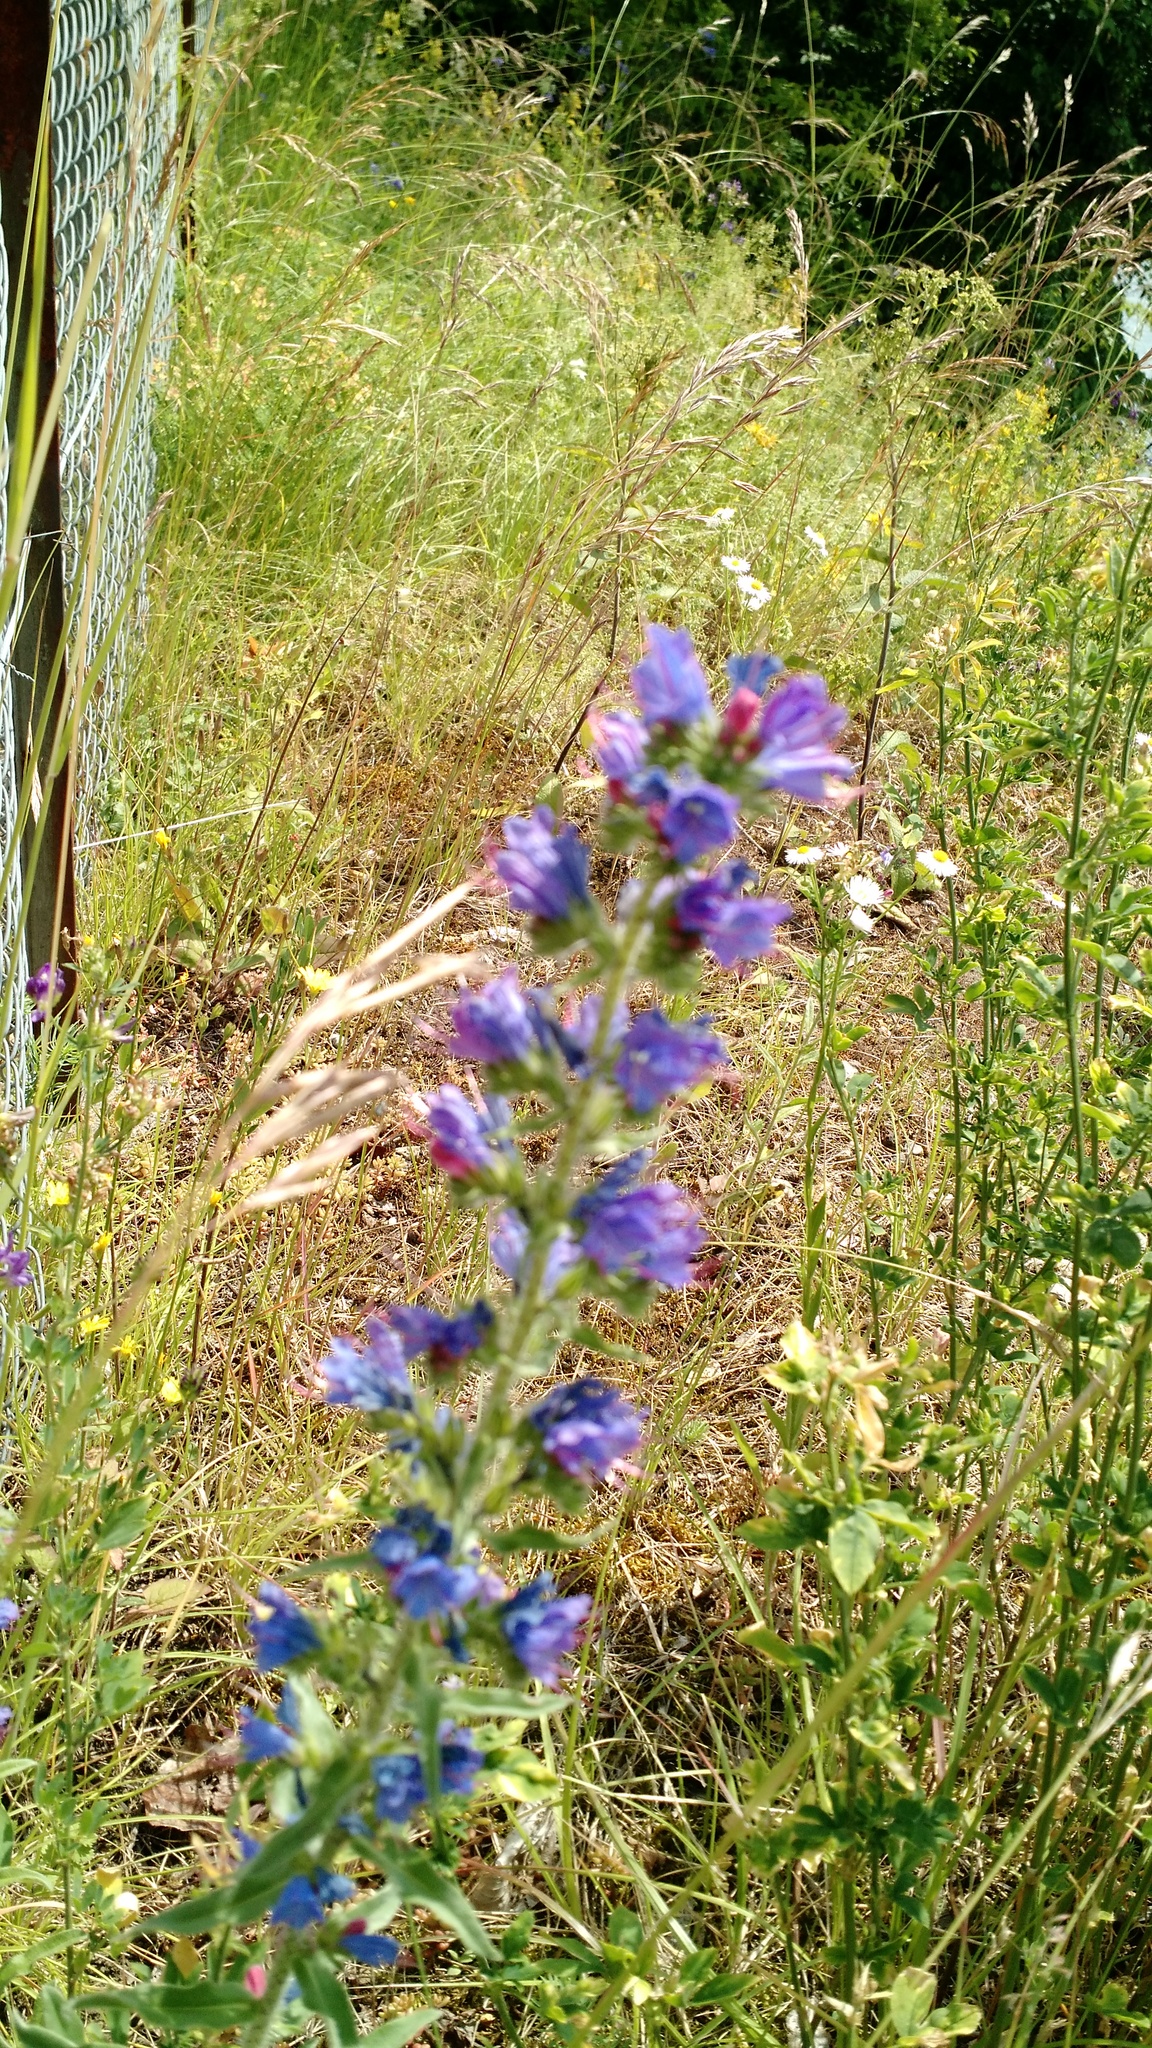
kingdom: Plantae
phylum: Tracheophyta
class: Magnoliopsida
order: Boraginales
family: Boraginaceae
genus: Echium
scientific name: Echium vulgare
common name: Common viper's bugloss
